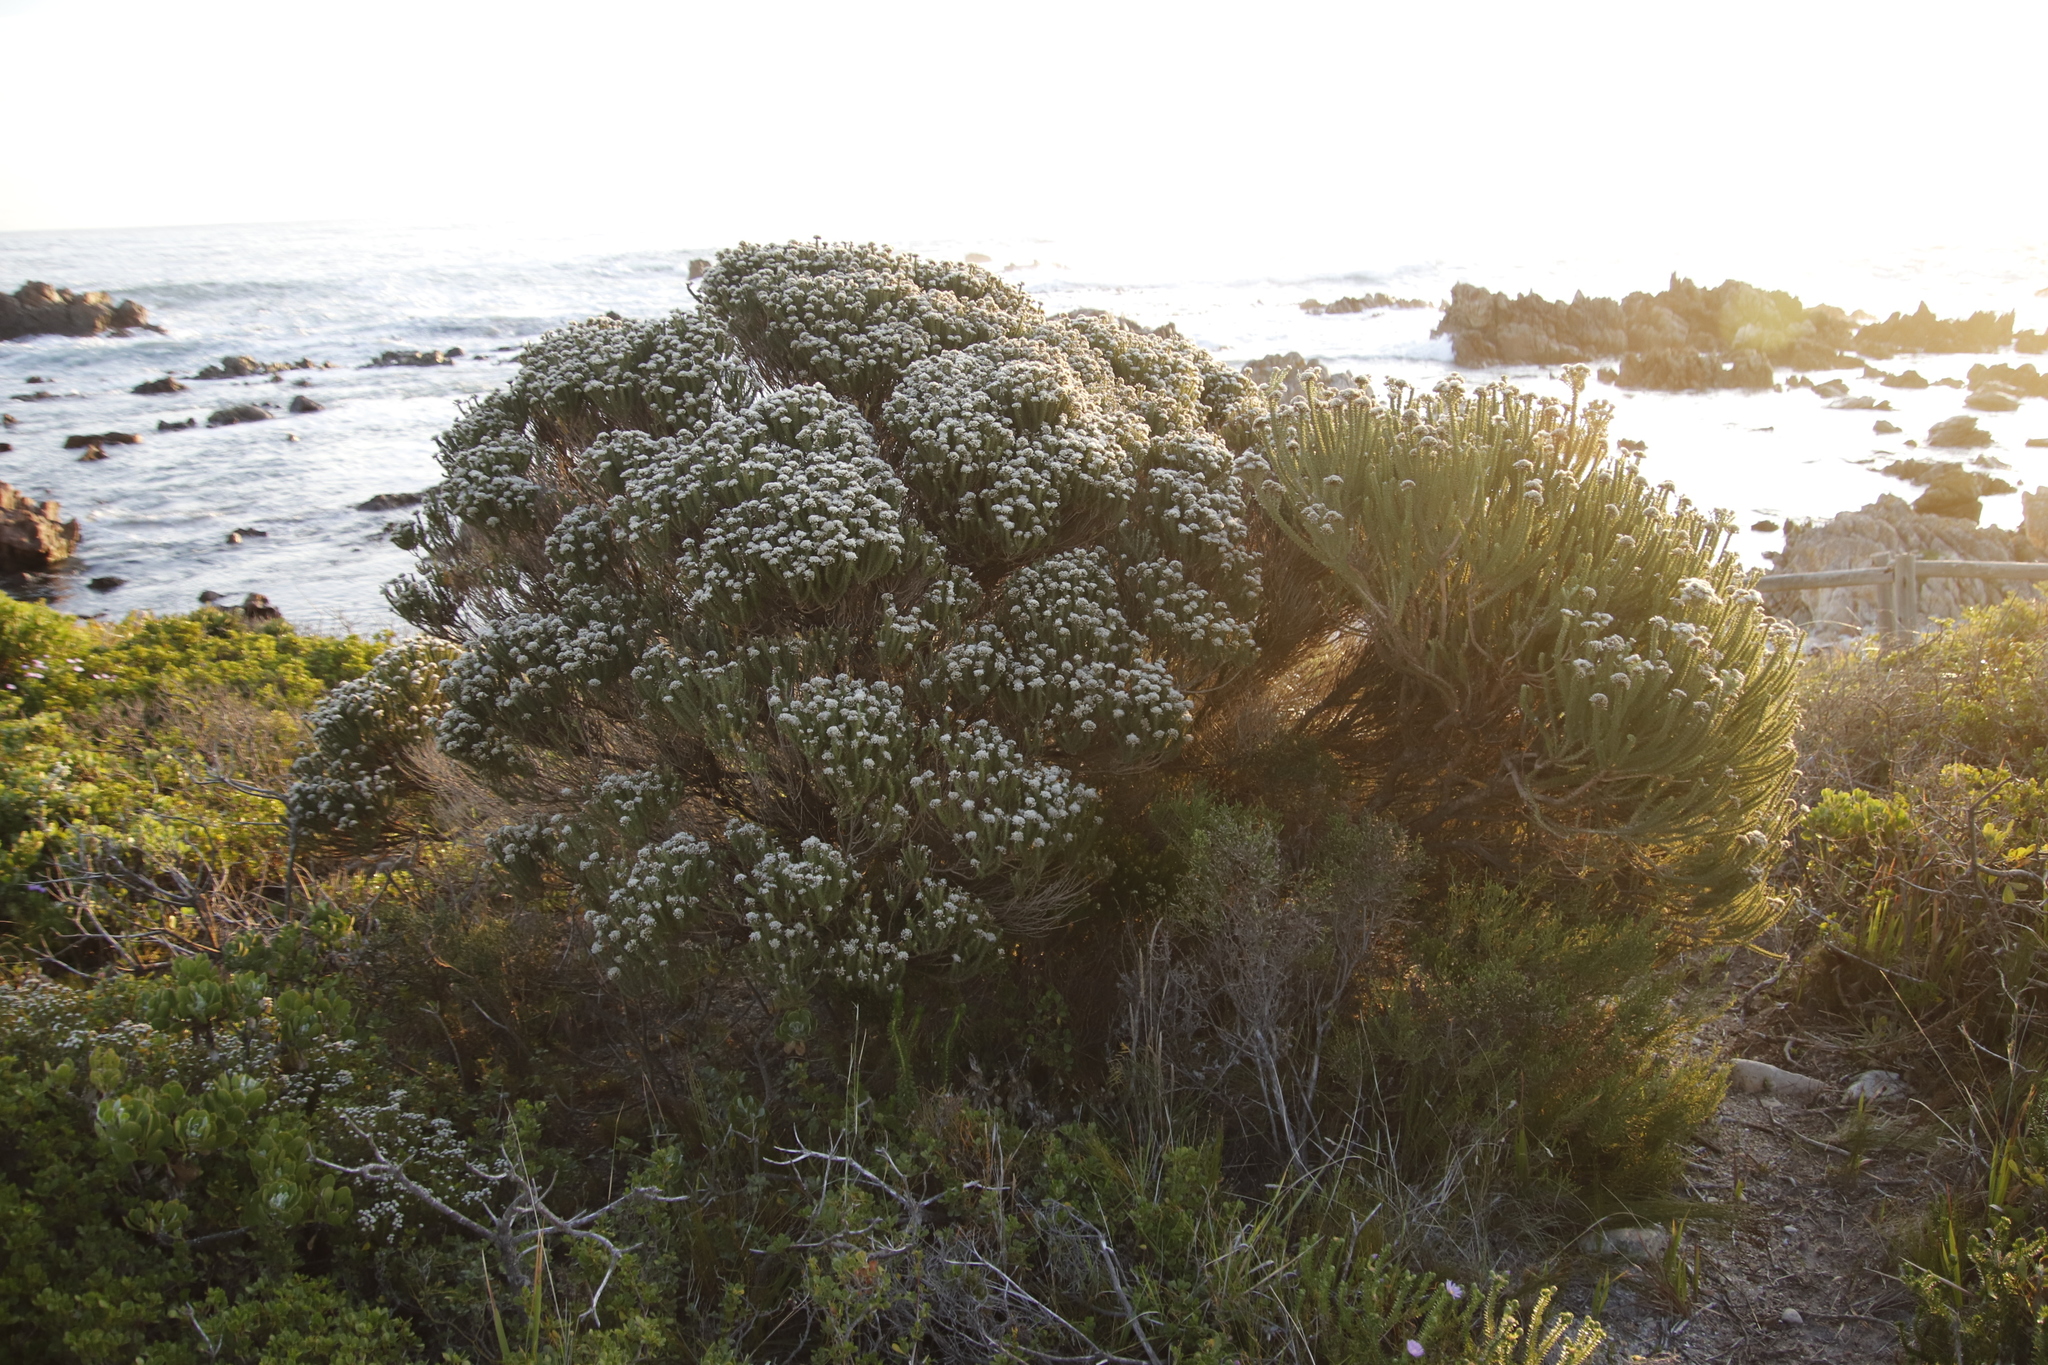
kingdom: Plantae
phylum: Tracheophyta
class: Magnoliopsida
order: Asterales
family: Asteraceae
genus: Metalasia
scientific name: Metalasia muricata
